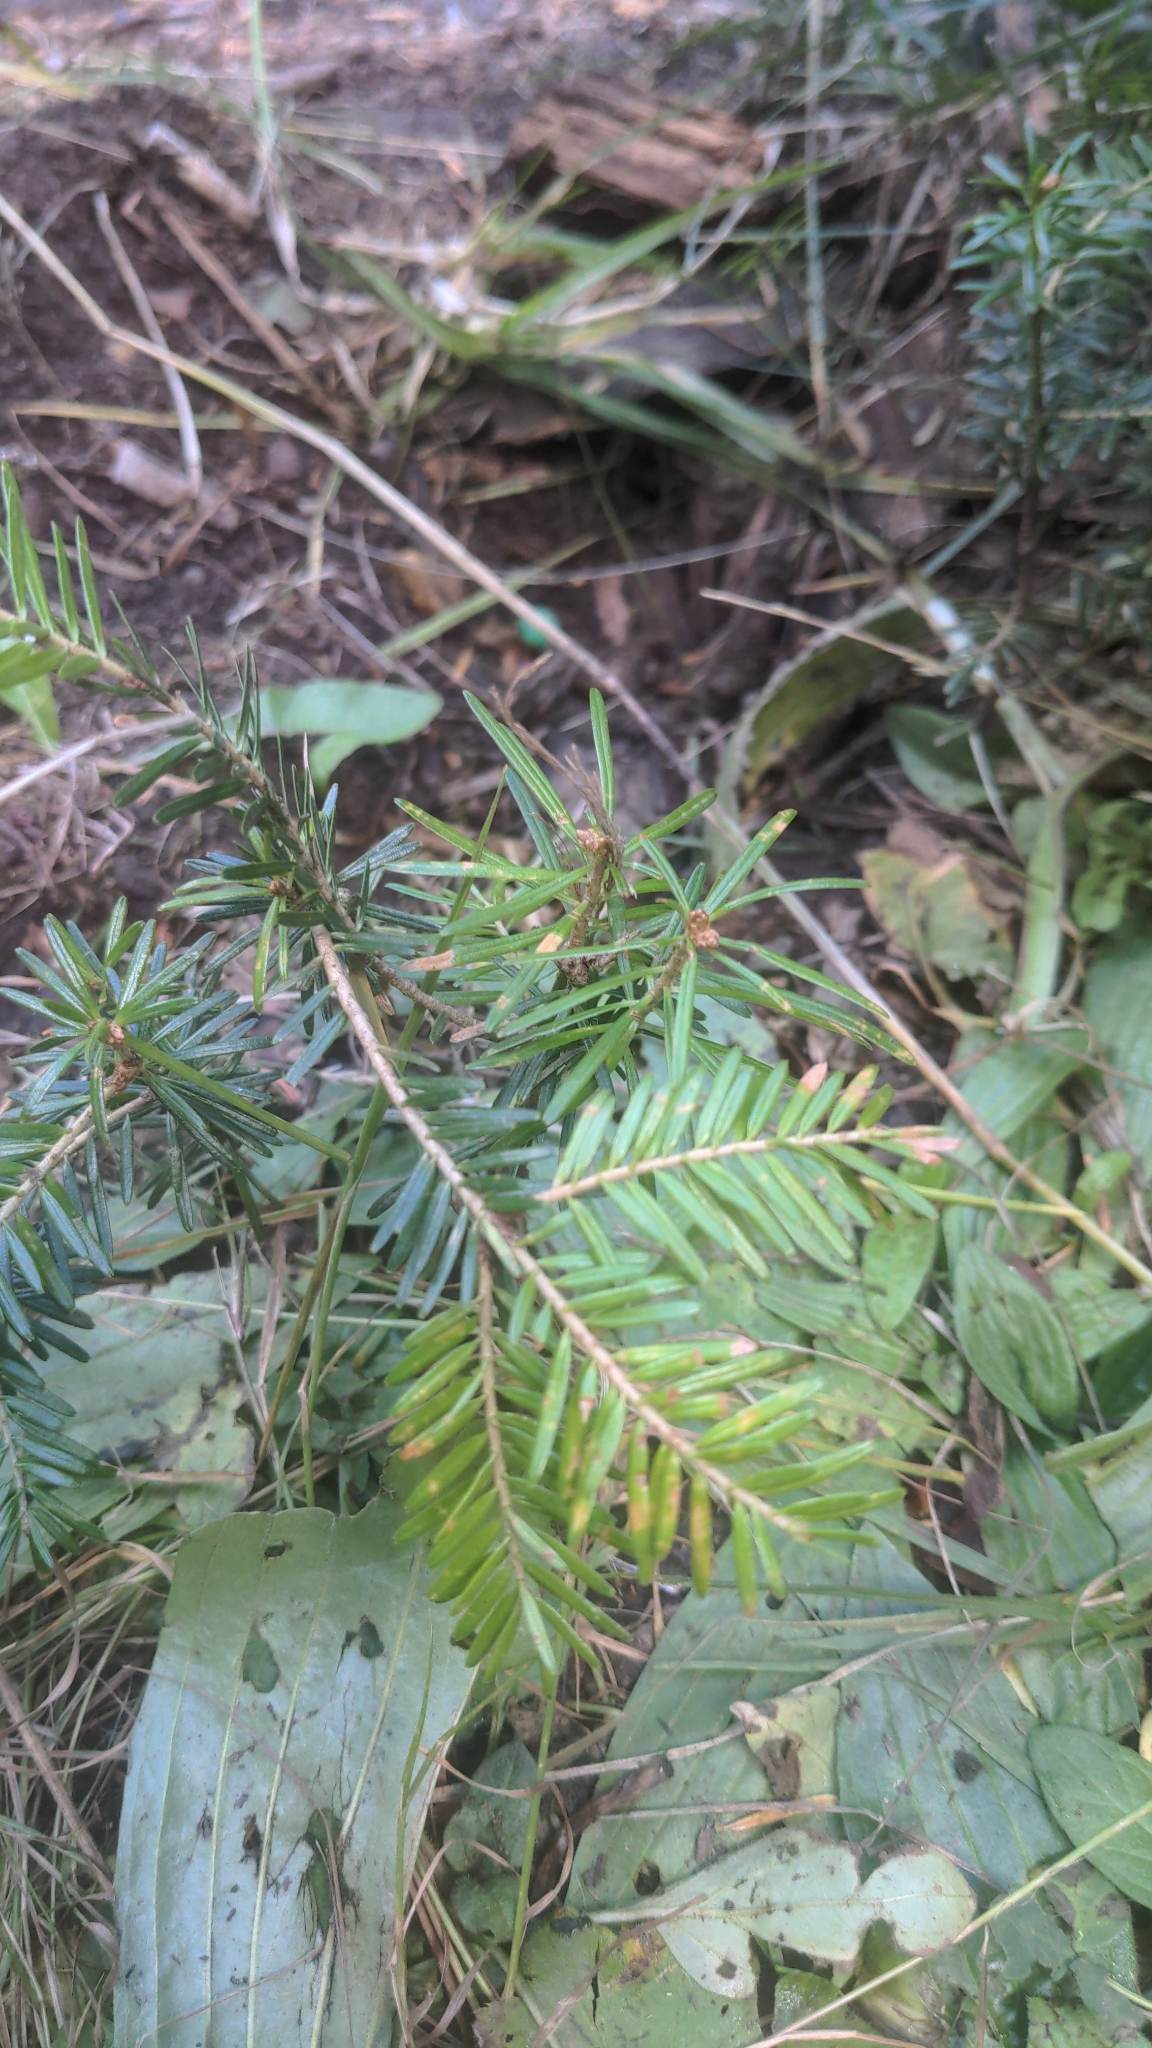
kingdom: Plantae
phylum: Tracheophyta
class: Pinopsida
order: Pinales
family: Pinaceae
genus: Abies
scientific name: Abies alba
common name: Silver fir
